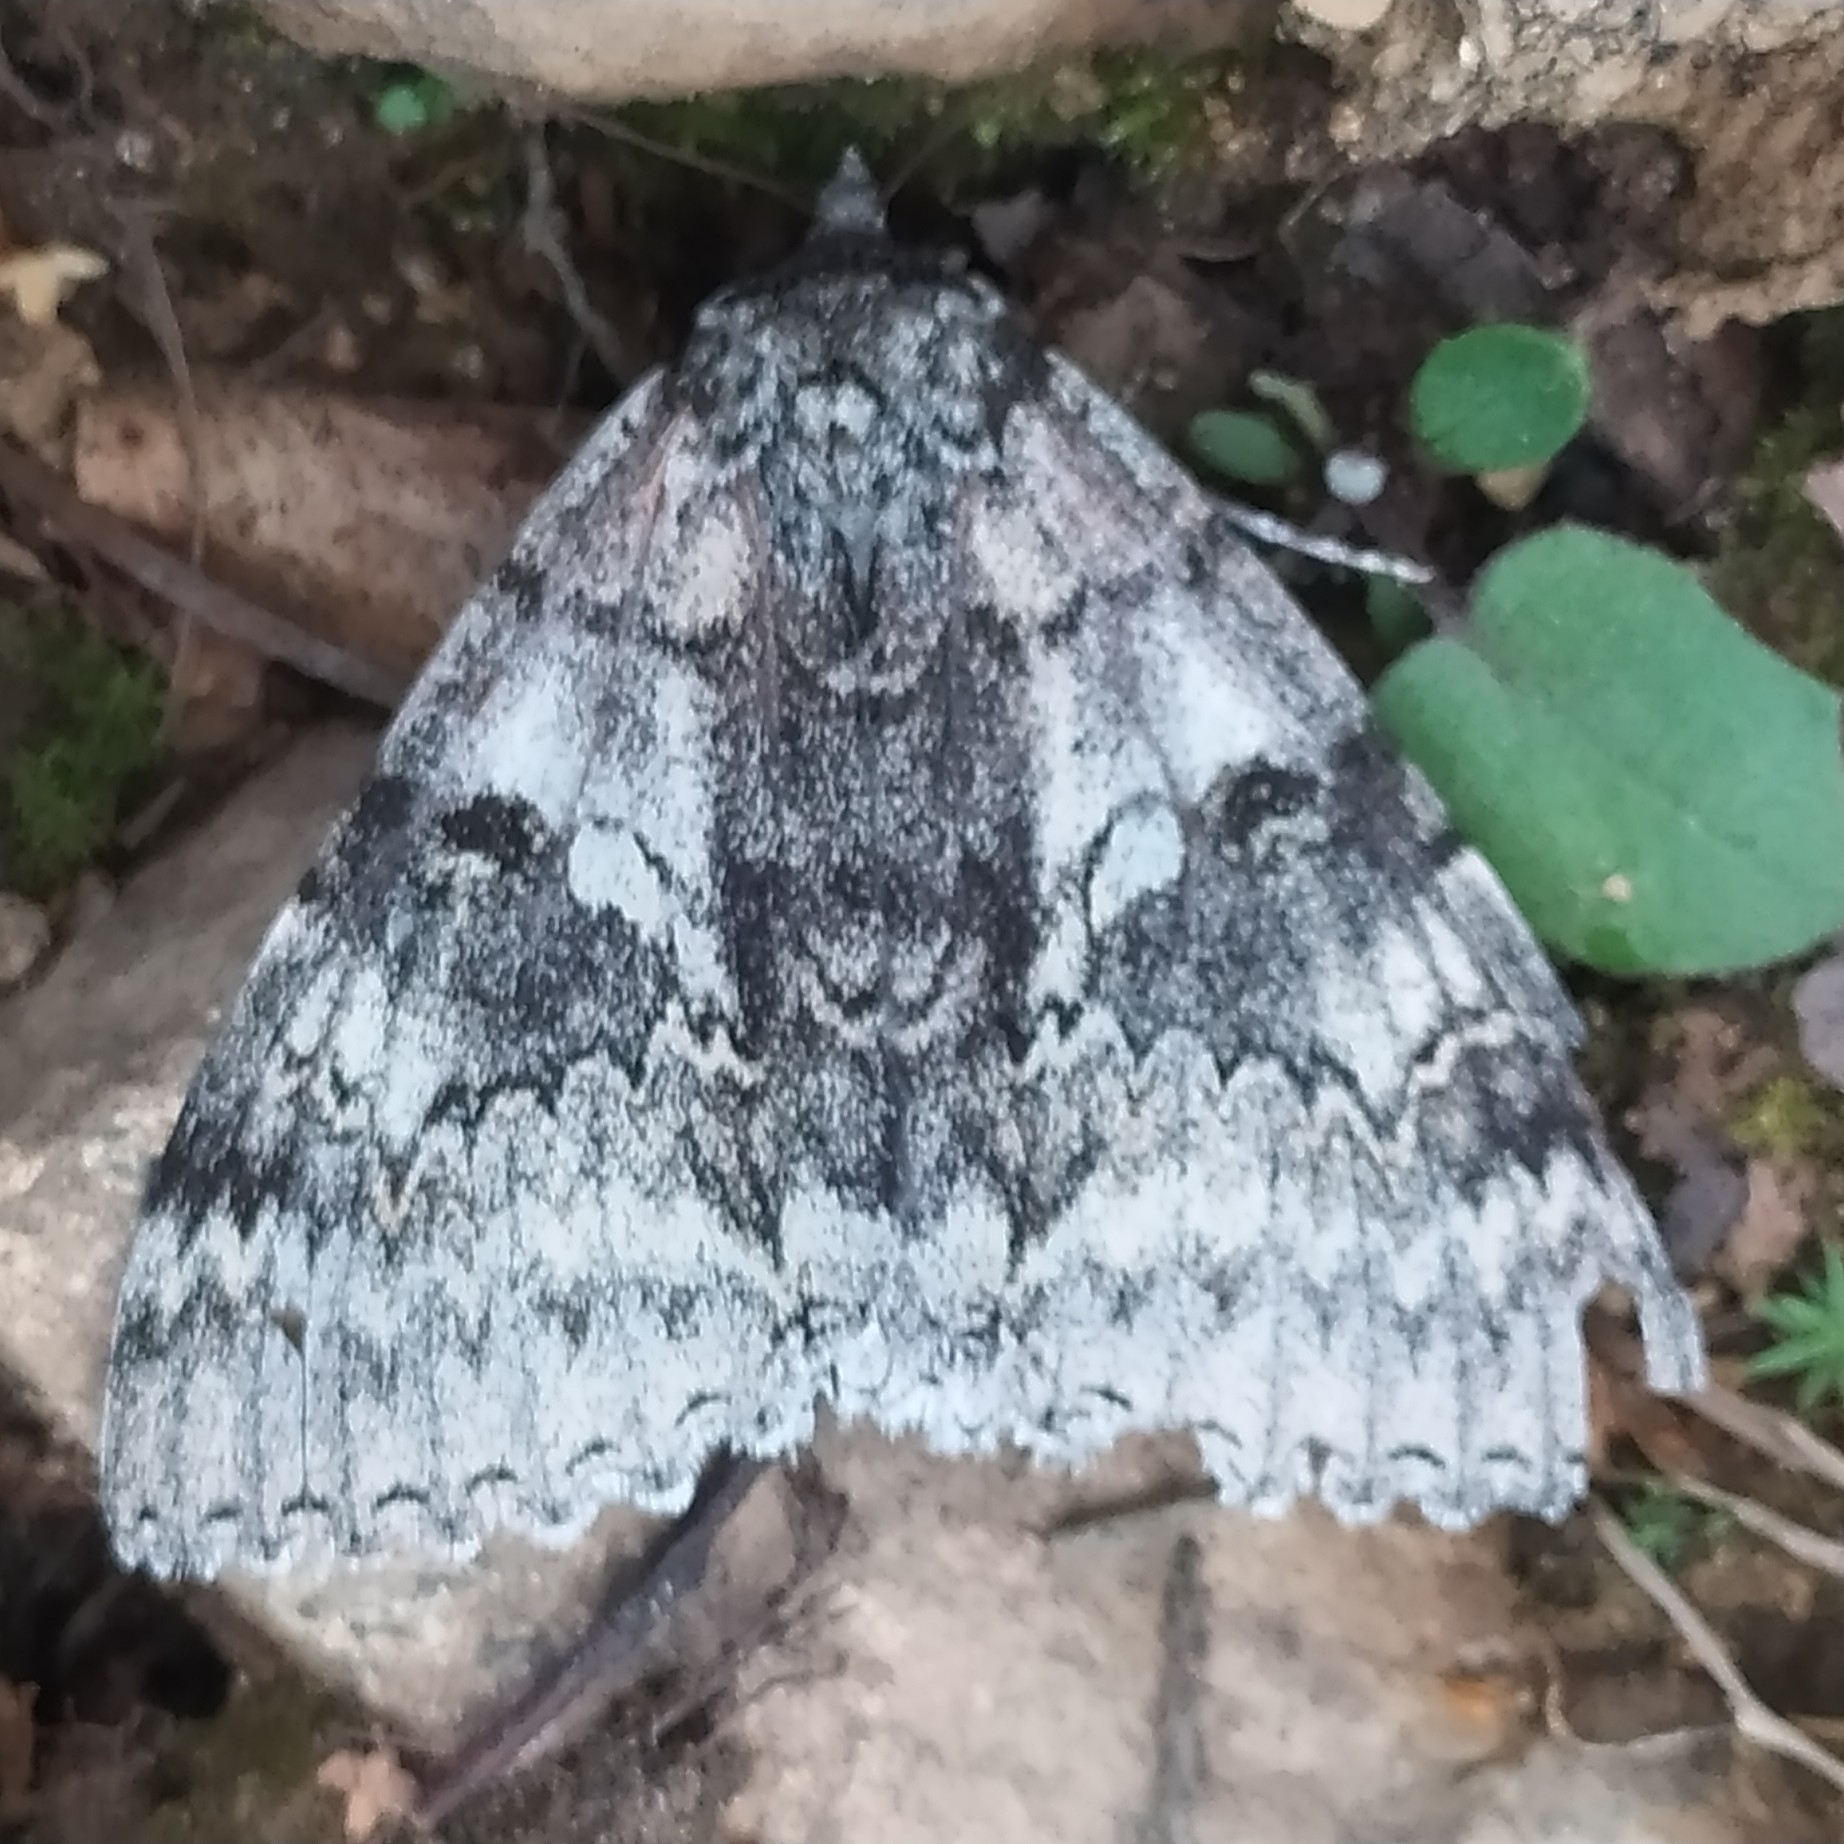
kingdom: Animalia
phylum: Arthropoda
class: Insecta
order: Lepidoptera
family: Erebidae
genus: Catocala
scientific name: Catocala fraxini
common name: Clifden nonpareil
